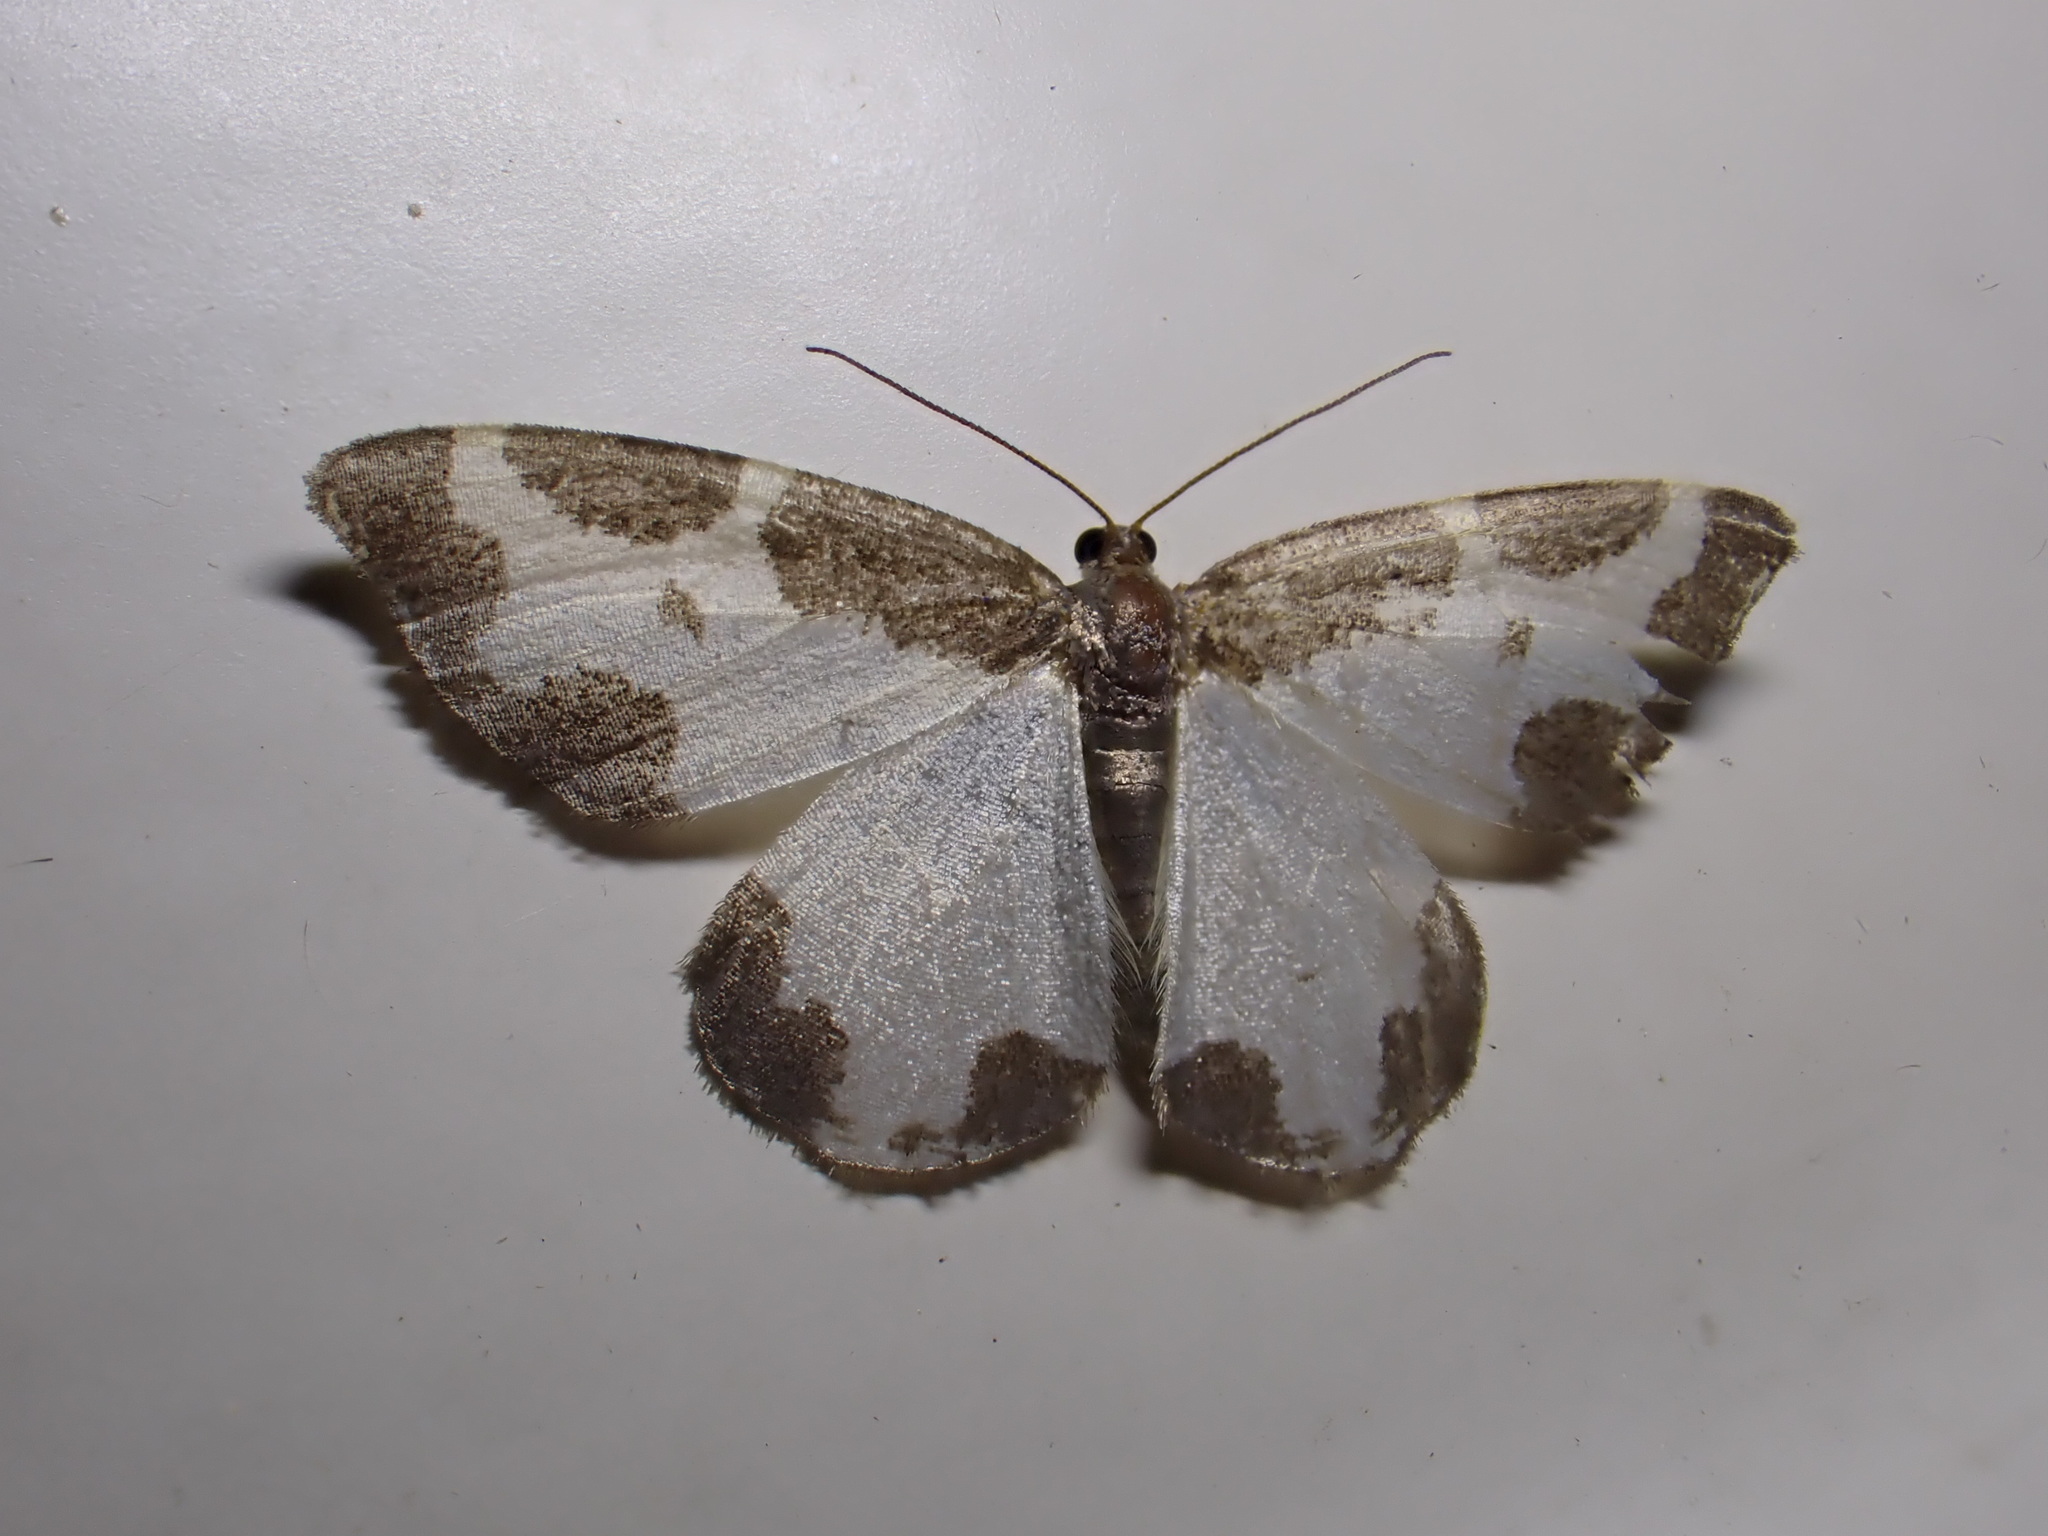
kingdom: Animalia
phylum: Arthropoda
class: Insecta
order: Lepidoptera
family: Geometridae
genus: Lomaspilis
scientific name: Lomaspilis marginata
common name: Clouded border
